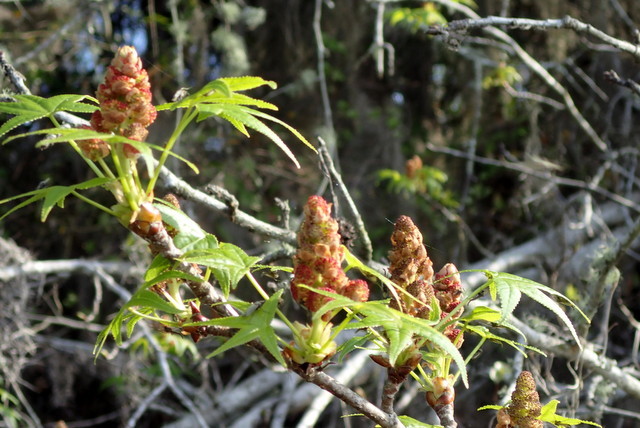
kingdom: Plantae
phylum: Tracheophyta
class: Magnoliopsida
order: Saxifragales
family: Altingiaceae
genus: Liquidambar
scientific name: Liquidambar styraciflua
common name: Sweet gum
